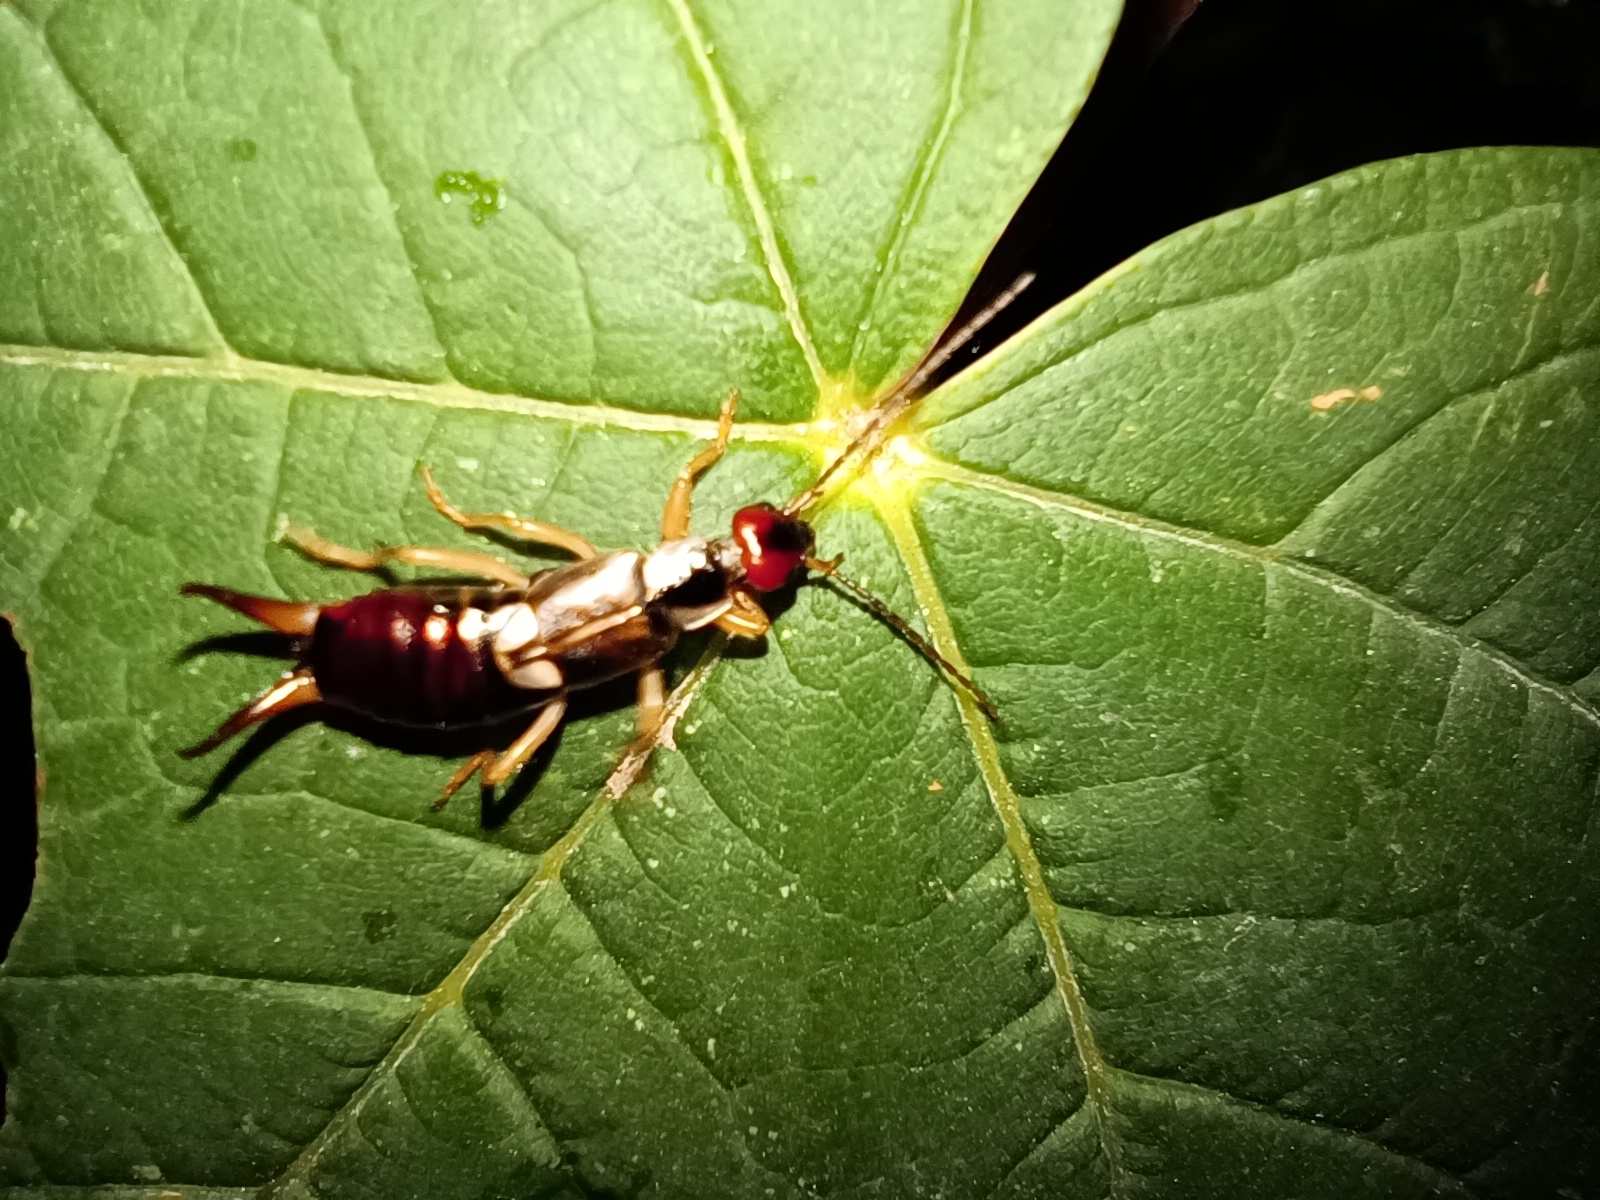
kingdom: Animalia
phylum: Arthropoda
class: Insecta
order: Dermaptera
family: Forficulidae
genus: Forficula
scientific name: Forficula auricularia
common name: European earwig
